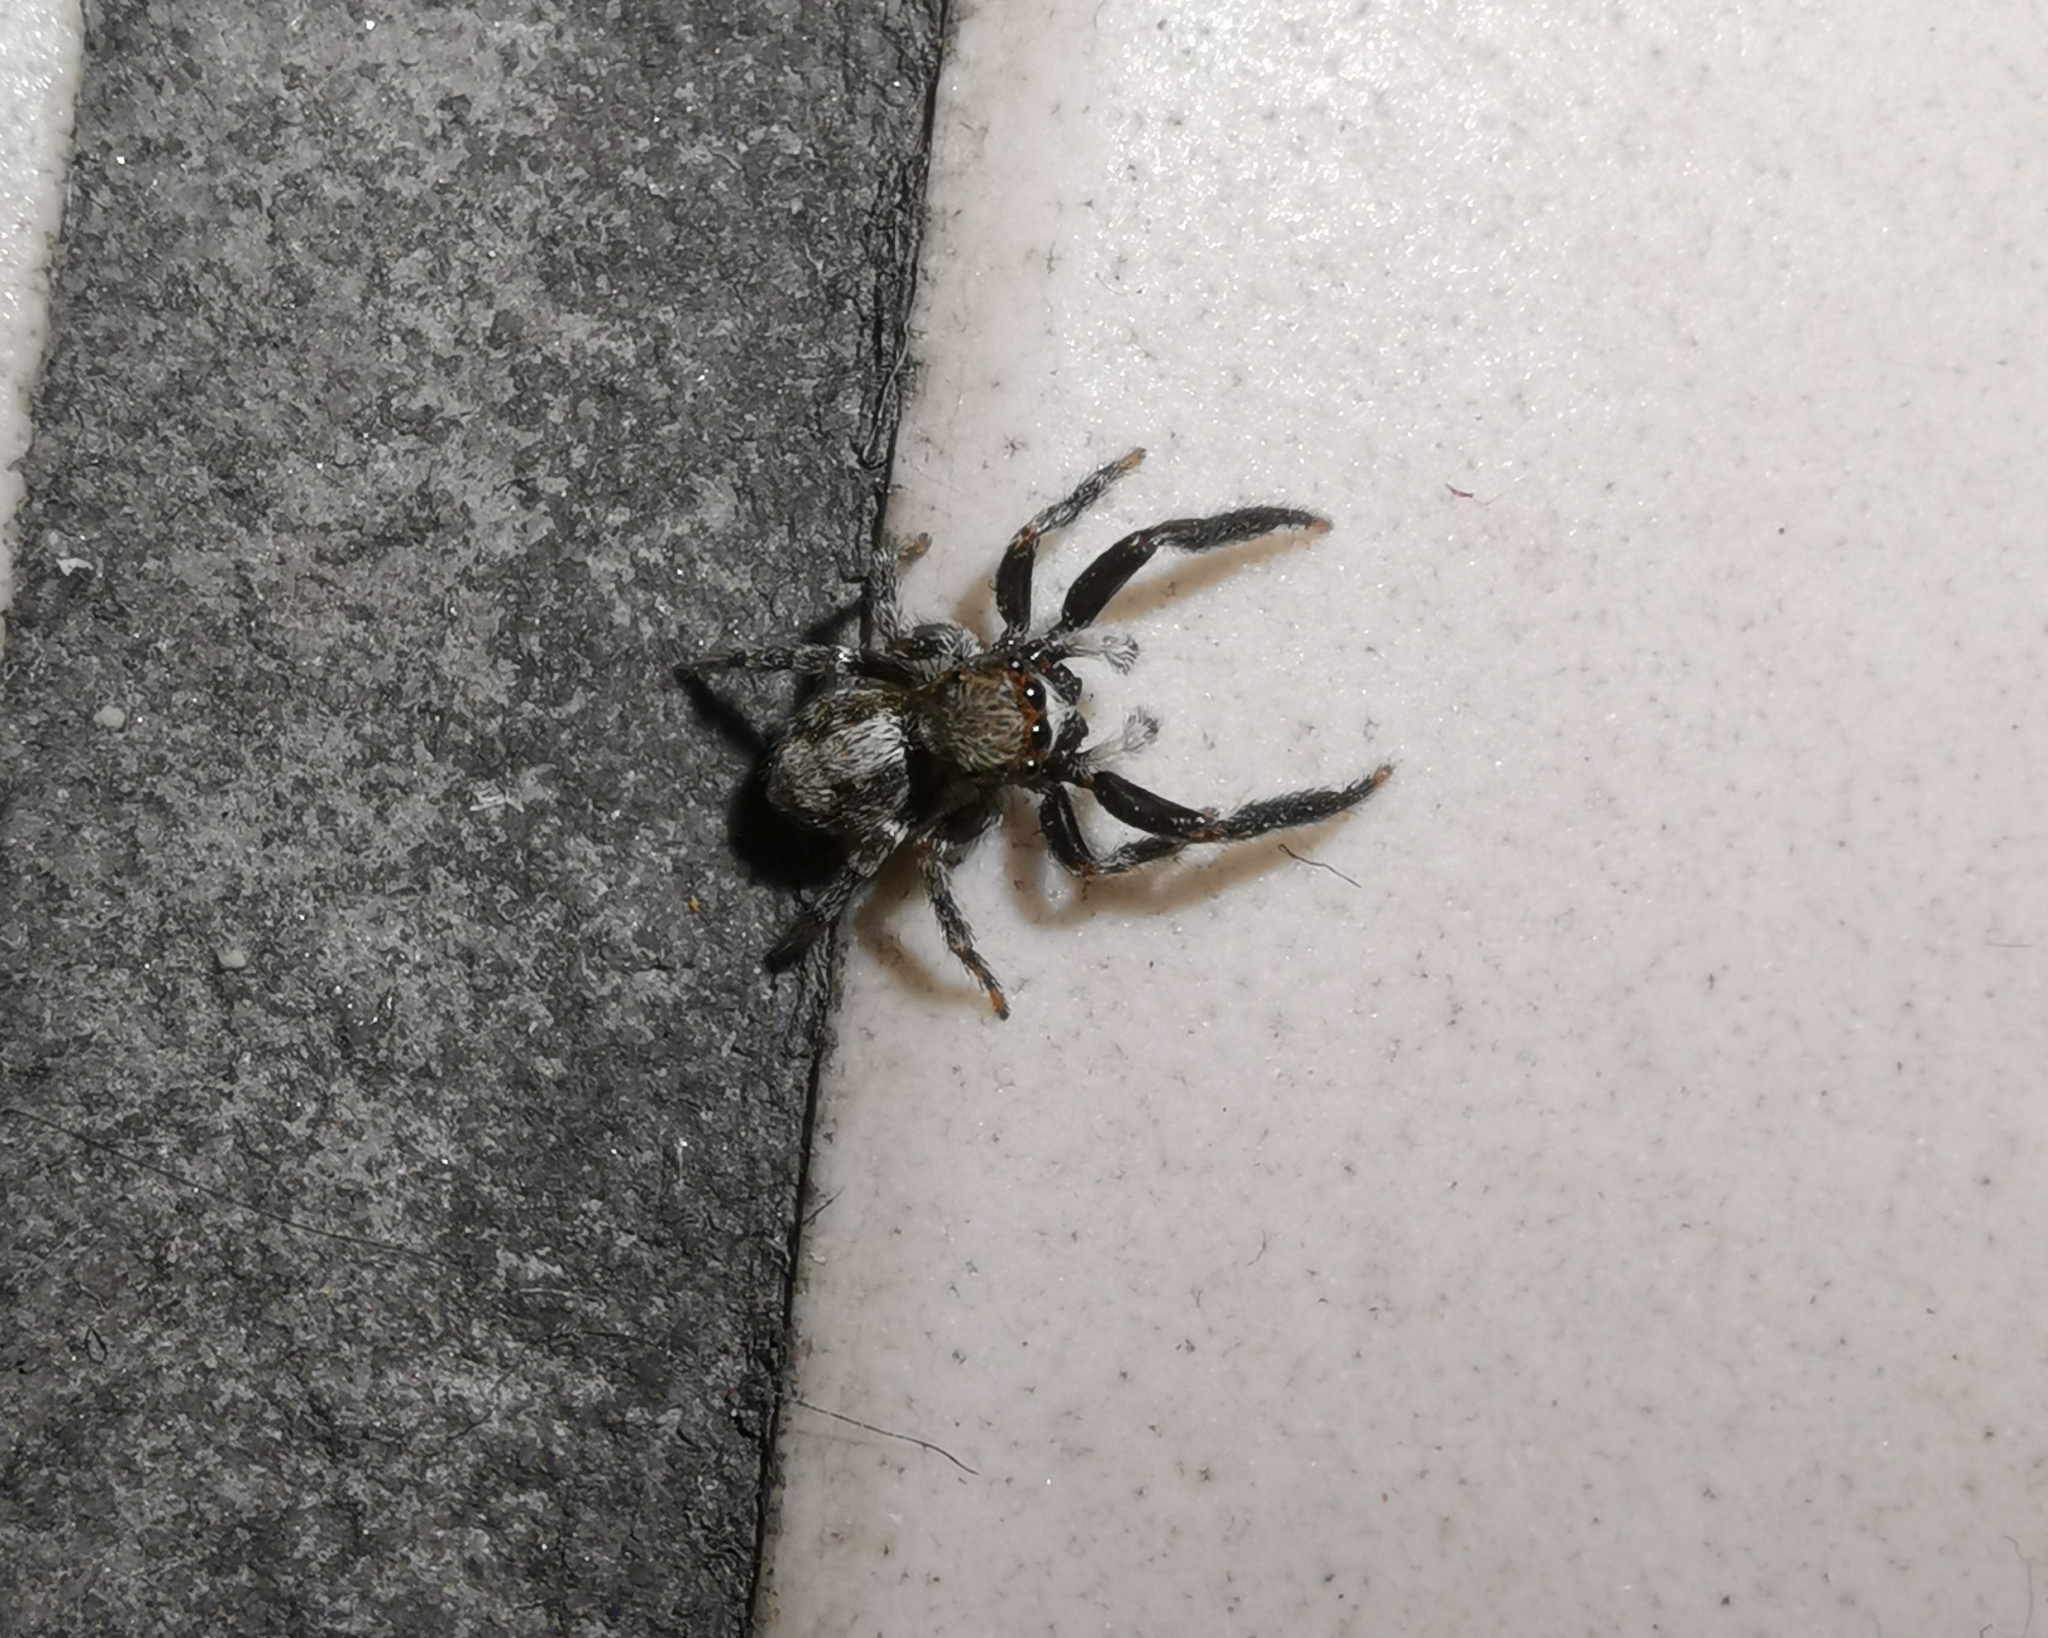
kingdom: Animalia
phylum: Arthropoda
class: Arachnida
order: Araneae
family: Salticidae
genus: Pseudeuophrys
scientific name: Pseudeuophrys lanigera
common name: Jumping spider
